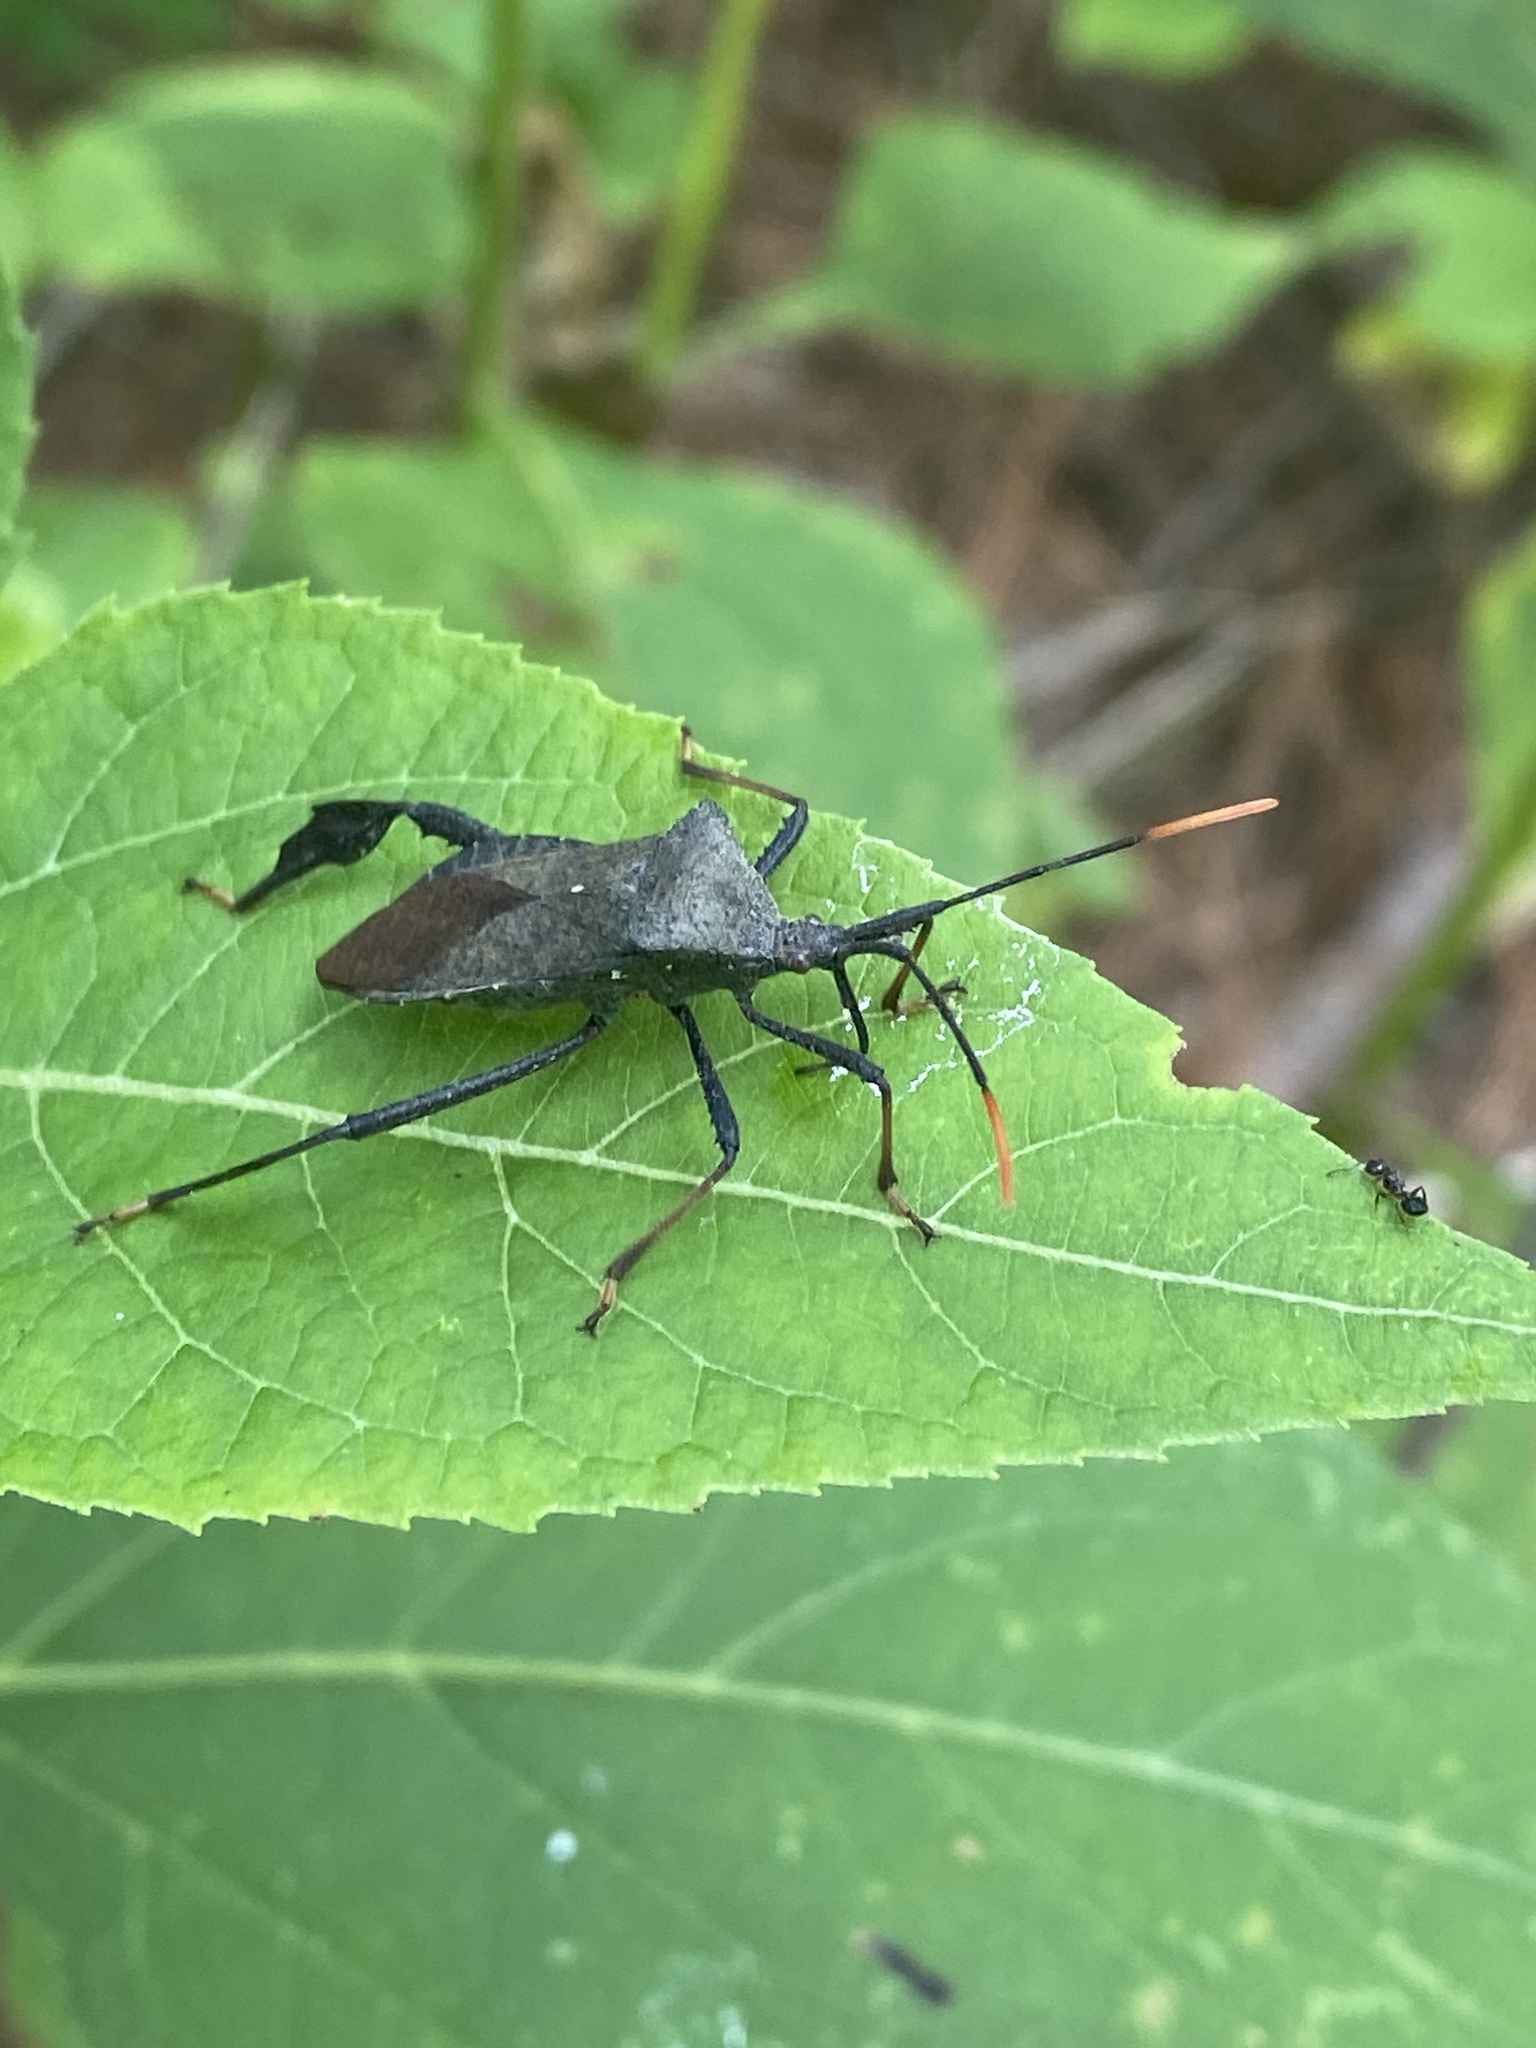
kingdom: Animalia
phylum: Arthropoda
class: Insecta
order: Hemiptera
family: Coreidae
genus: Acanthocephala
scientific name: Acanthocephala terminalis
